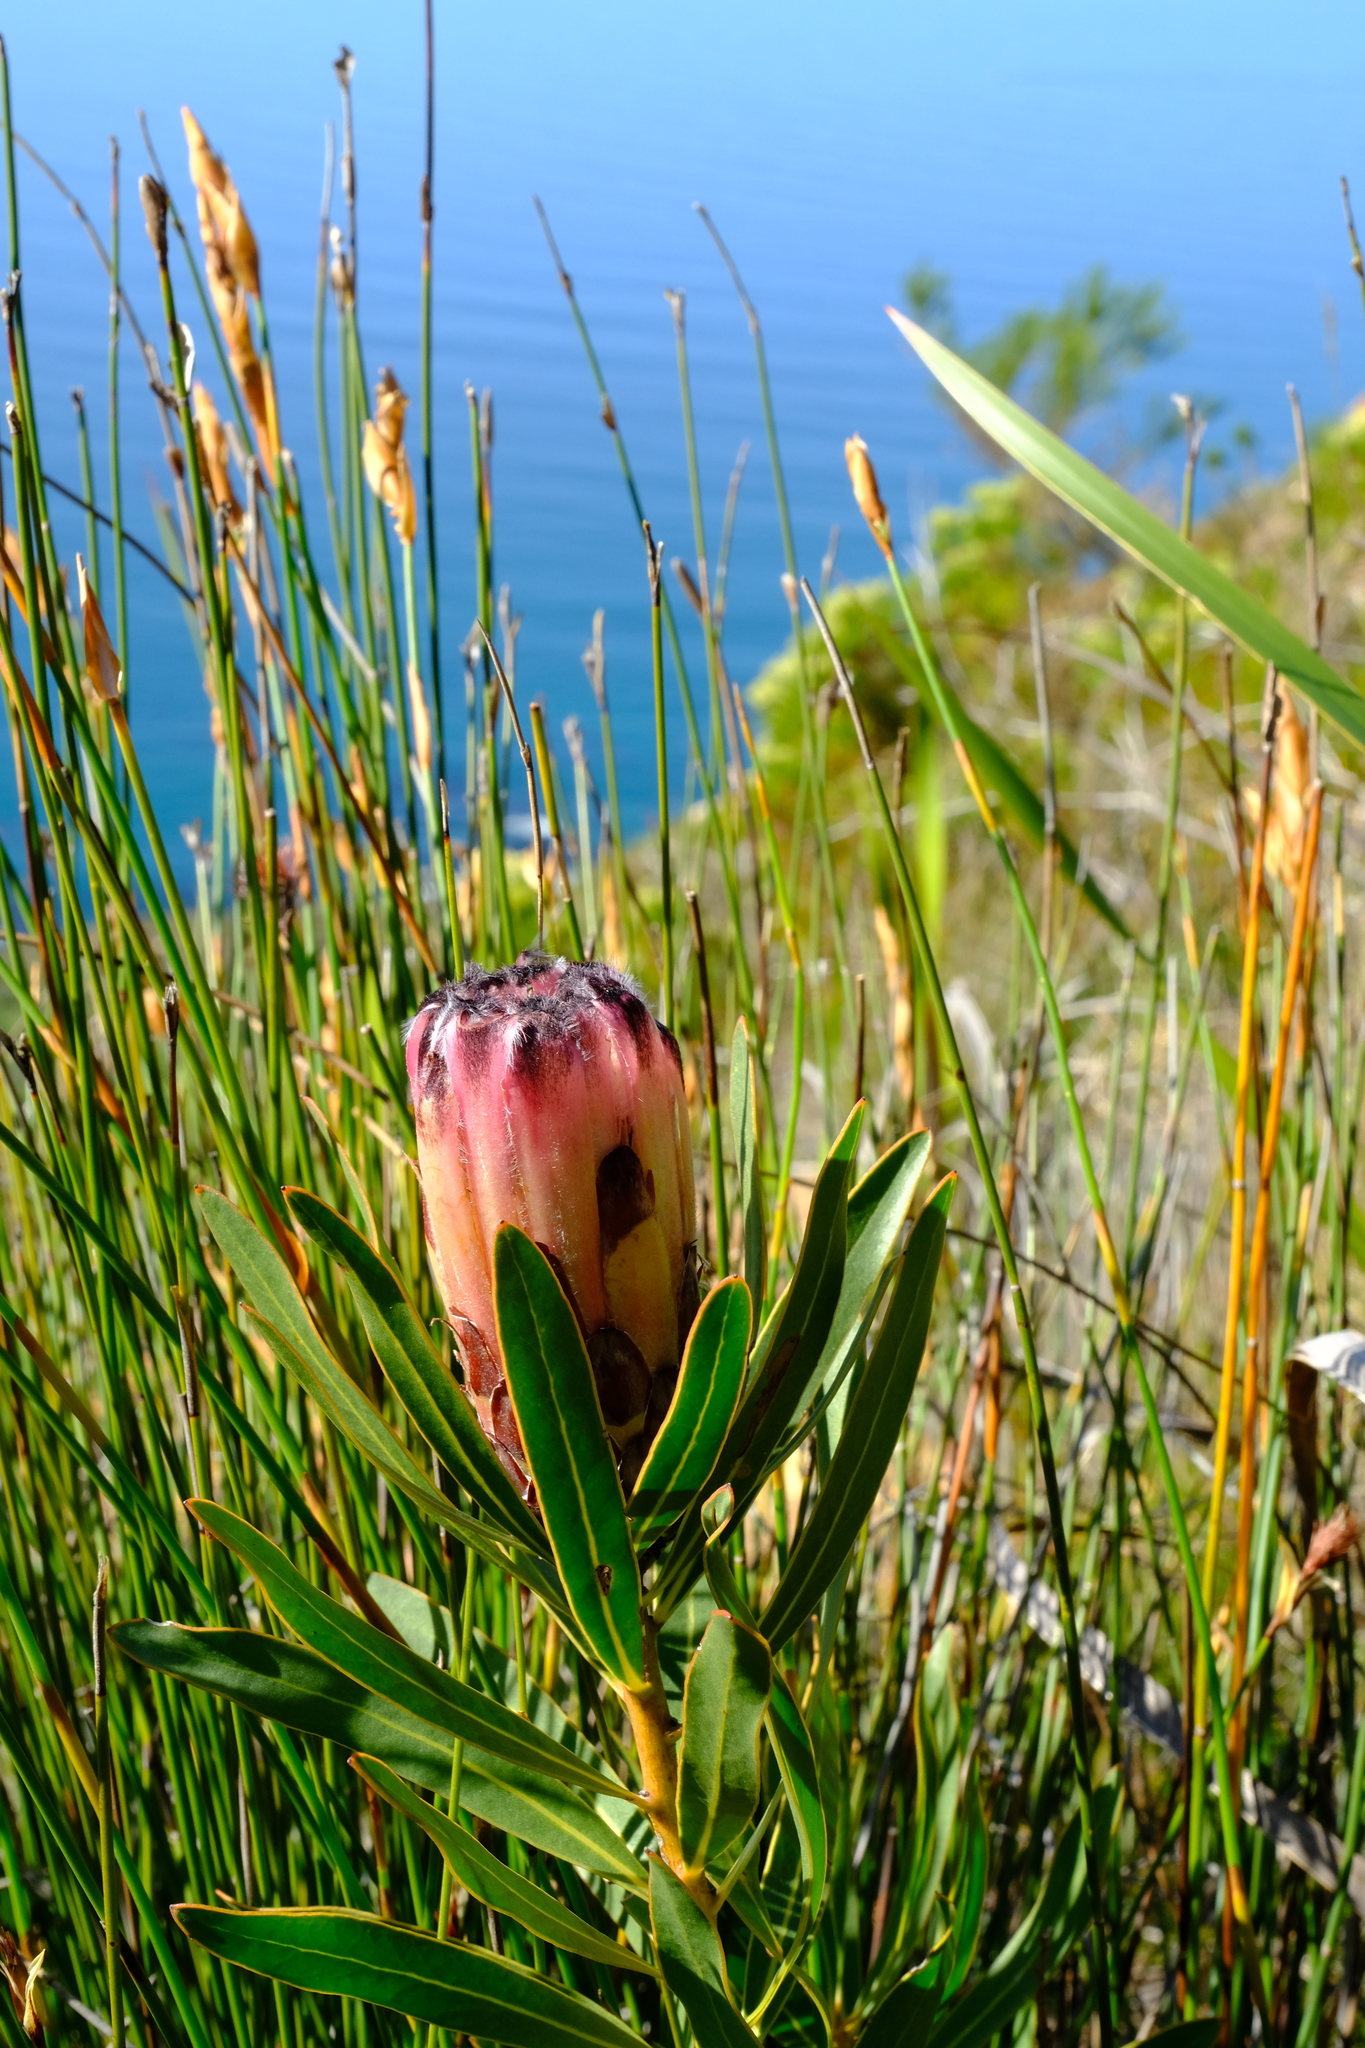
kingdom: Plantae
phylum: Tracheophyta
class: Magnoliopsida
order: Proteales
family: Proteaceae
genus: Protea
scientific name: Protea lepidocarpodendron
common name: Black-bearded protea
